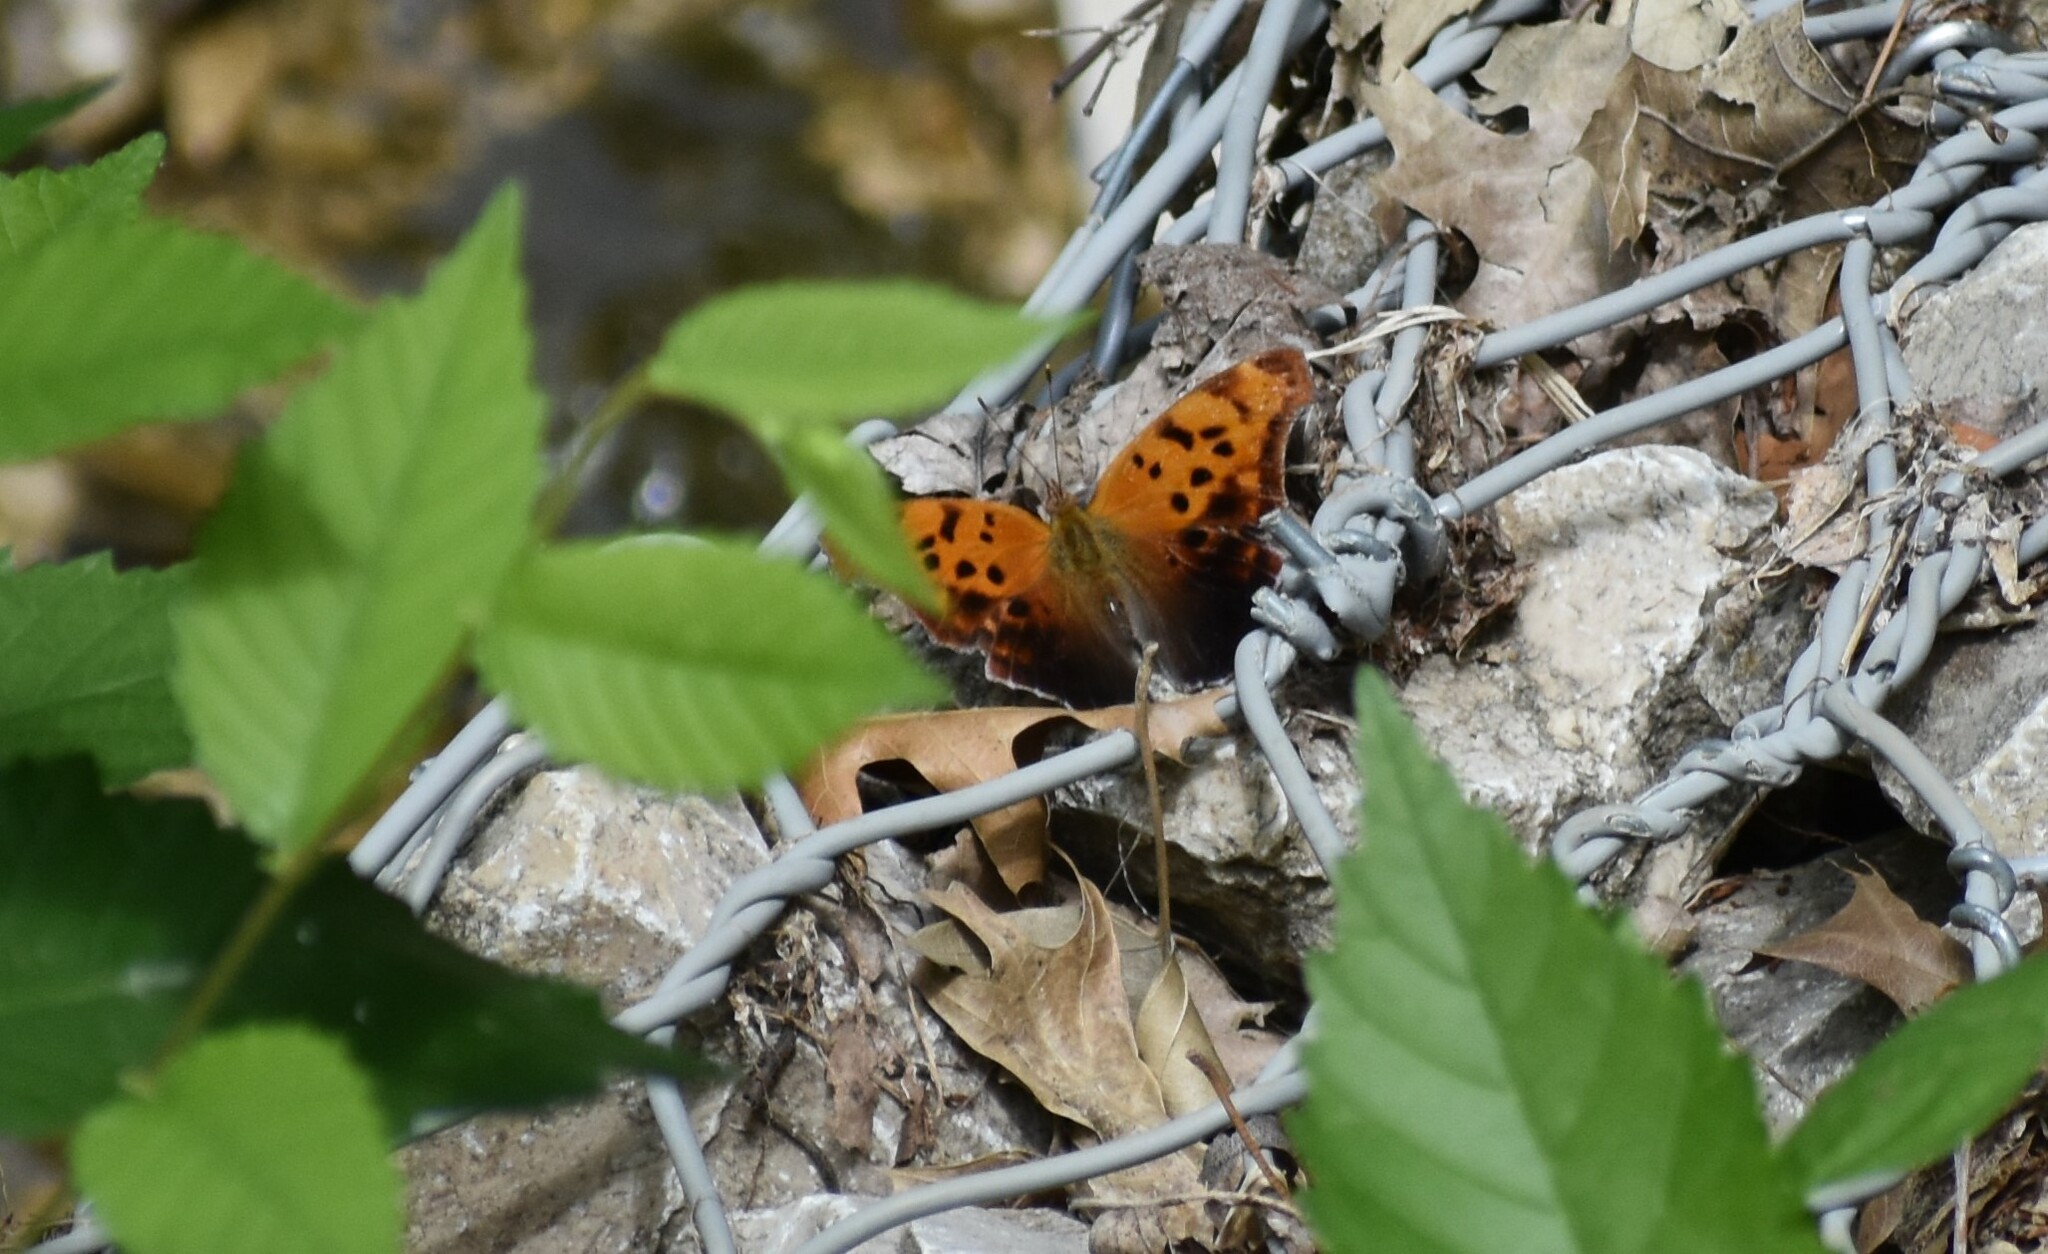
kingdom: Animalia
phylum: Arthropoda
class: Insecta
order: Lepidoptera
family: Nymphalidae
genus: Polygonia
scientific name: Polygonia interrogationis
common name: Question mark
